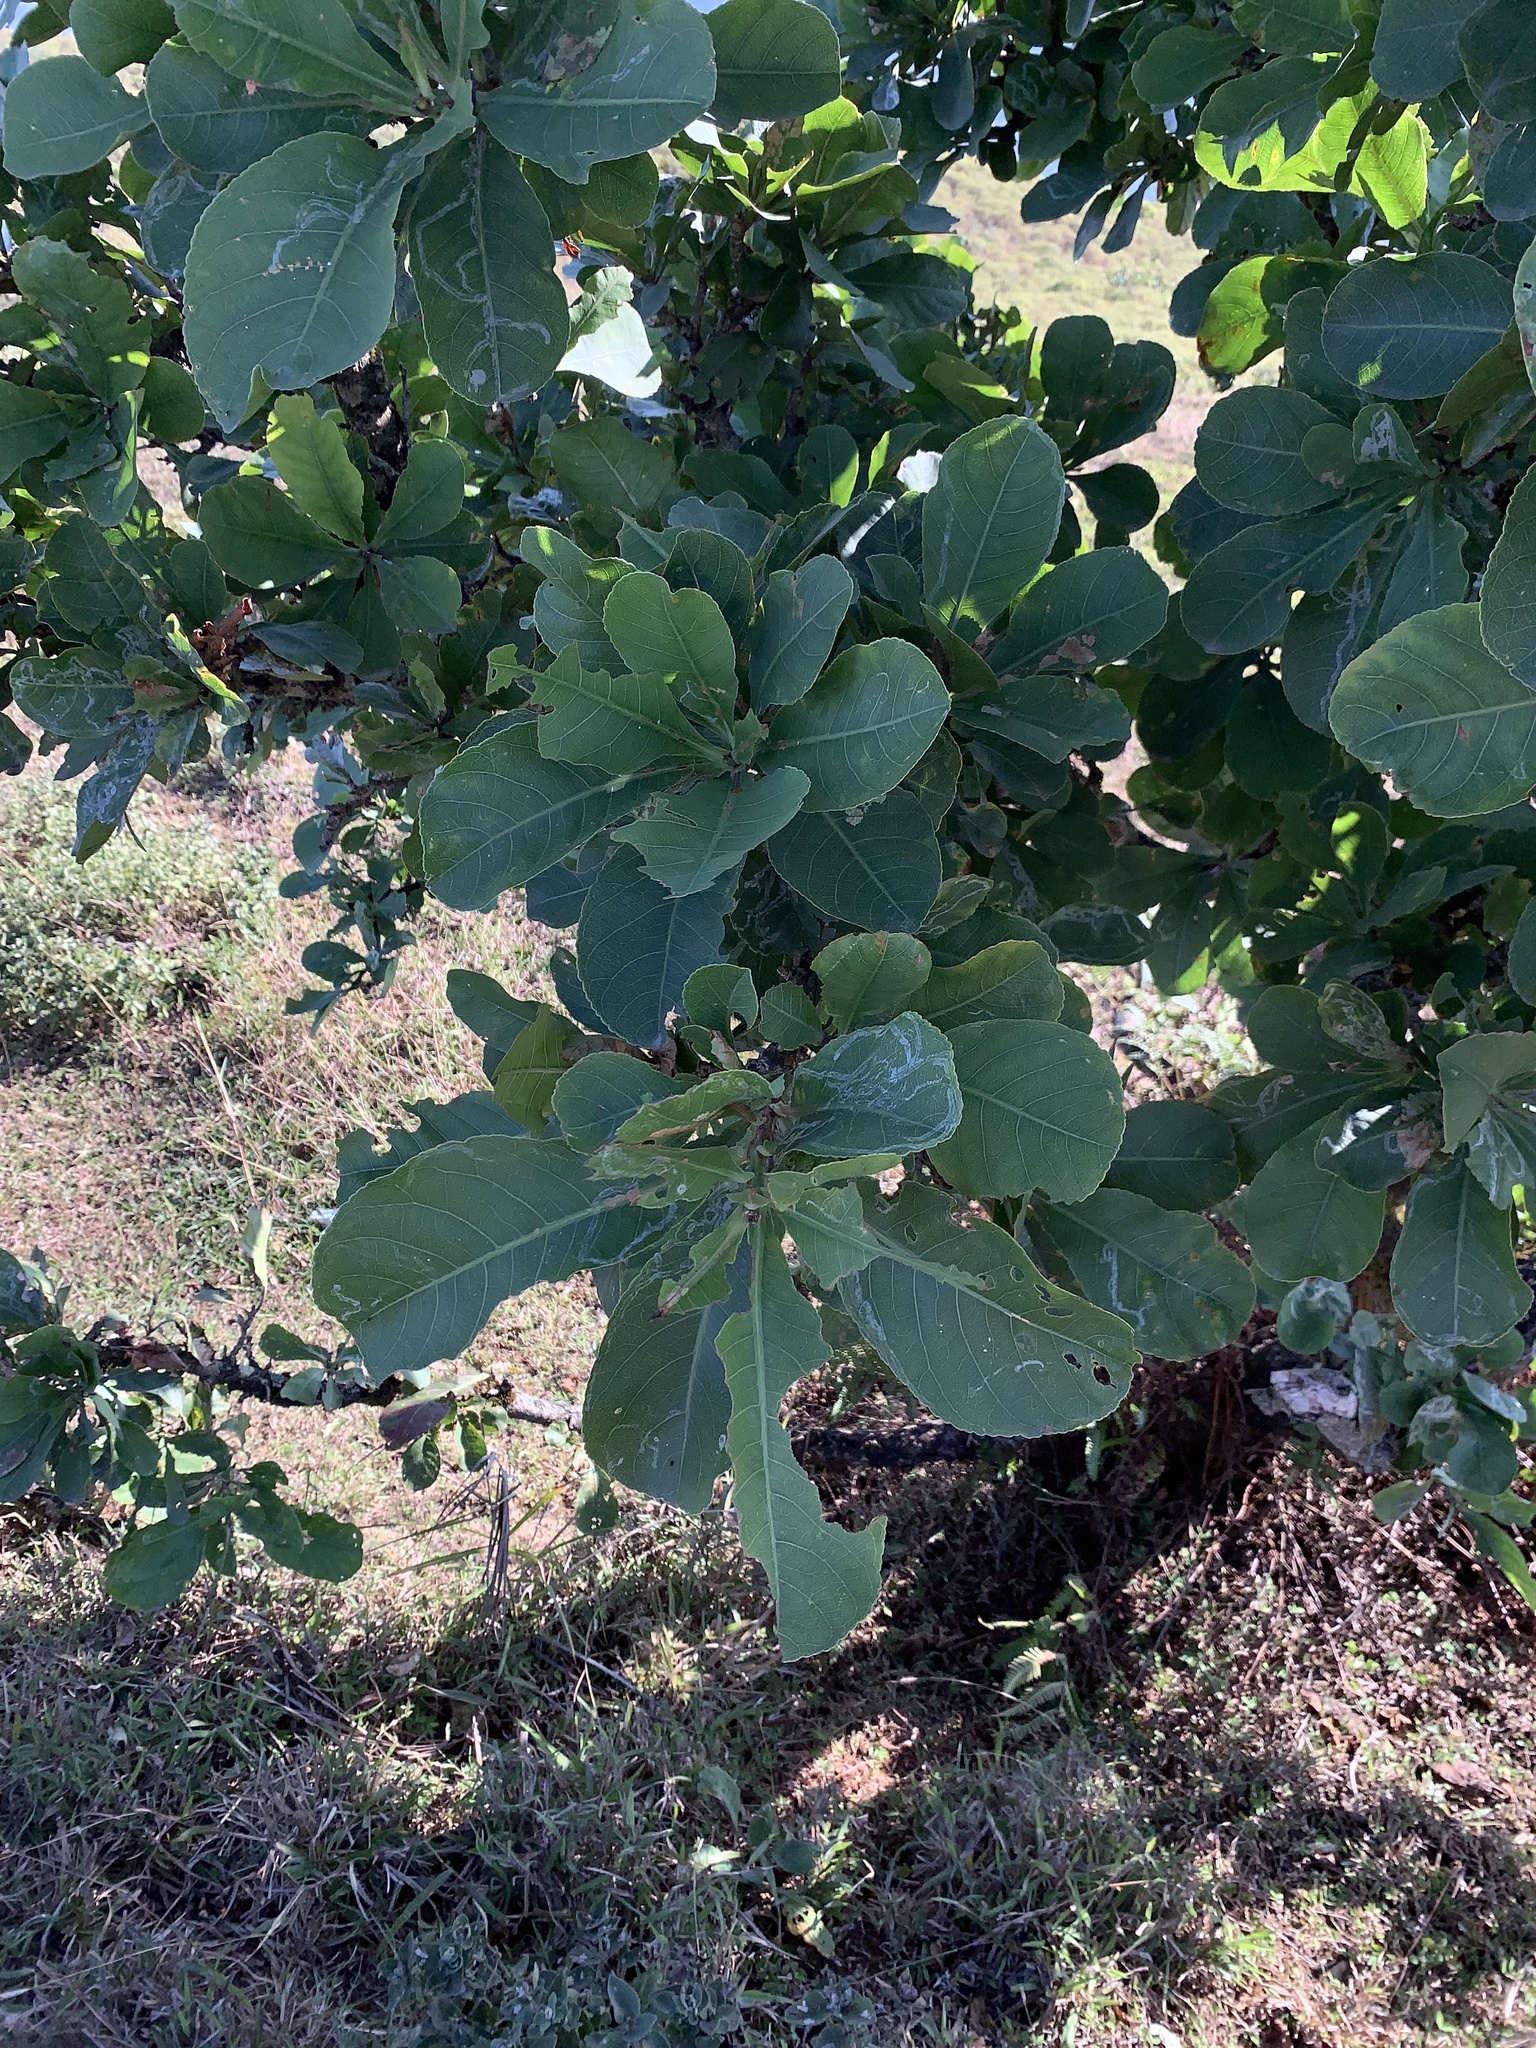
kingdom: Plantae
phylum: Tracheophyta
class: Magnoliopsida
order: Ericales
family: Lecythidaceae
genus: Careya
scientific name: Careya arborea
